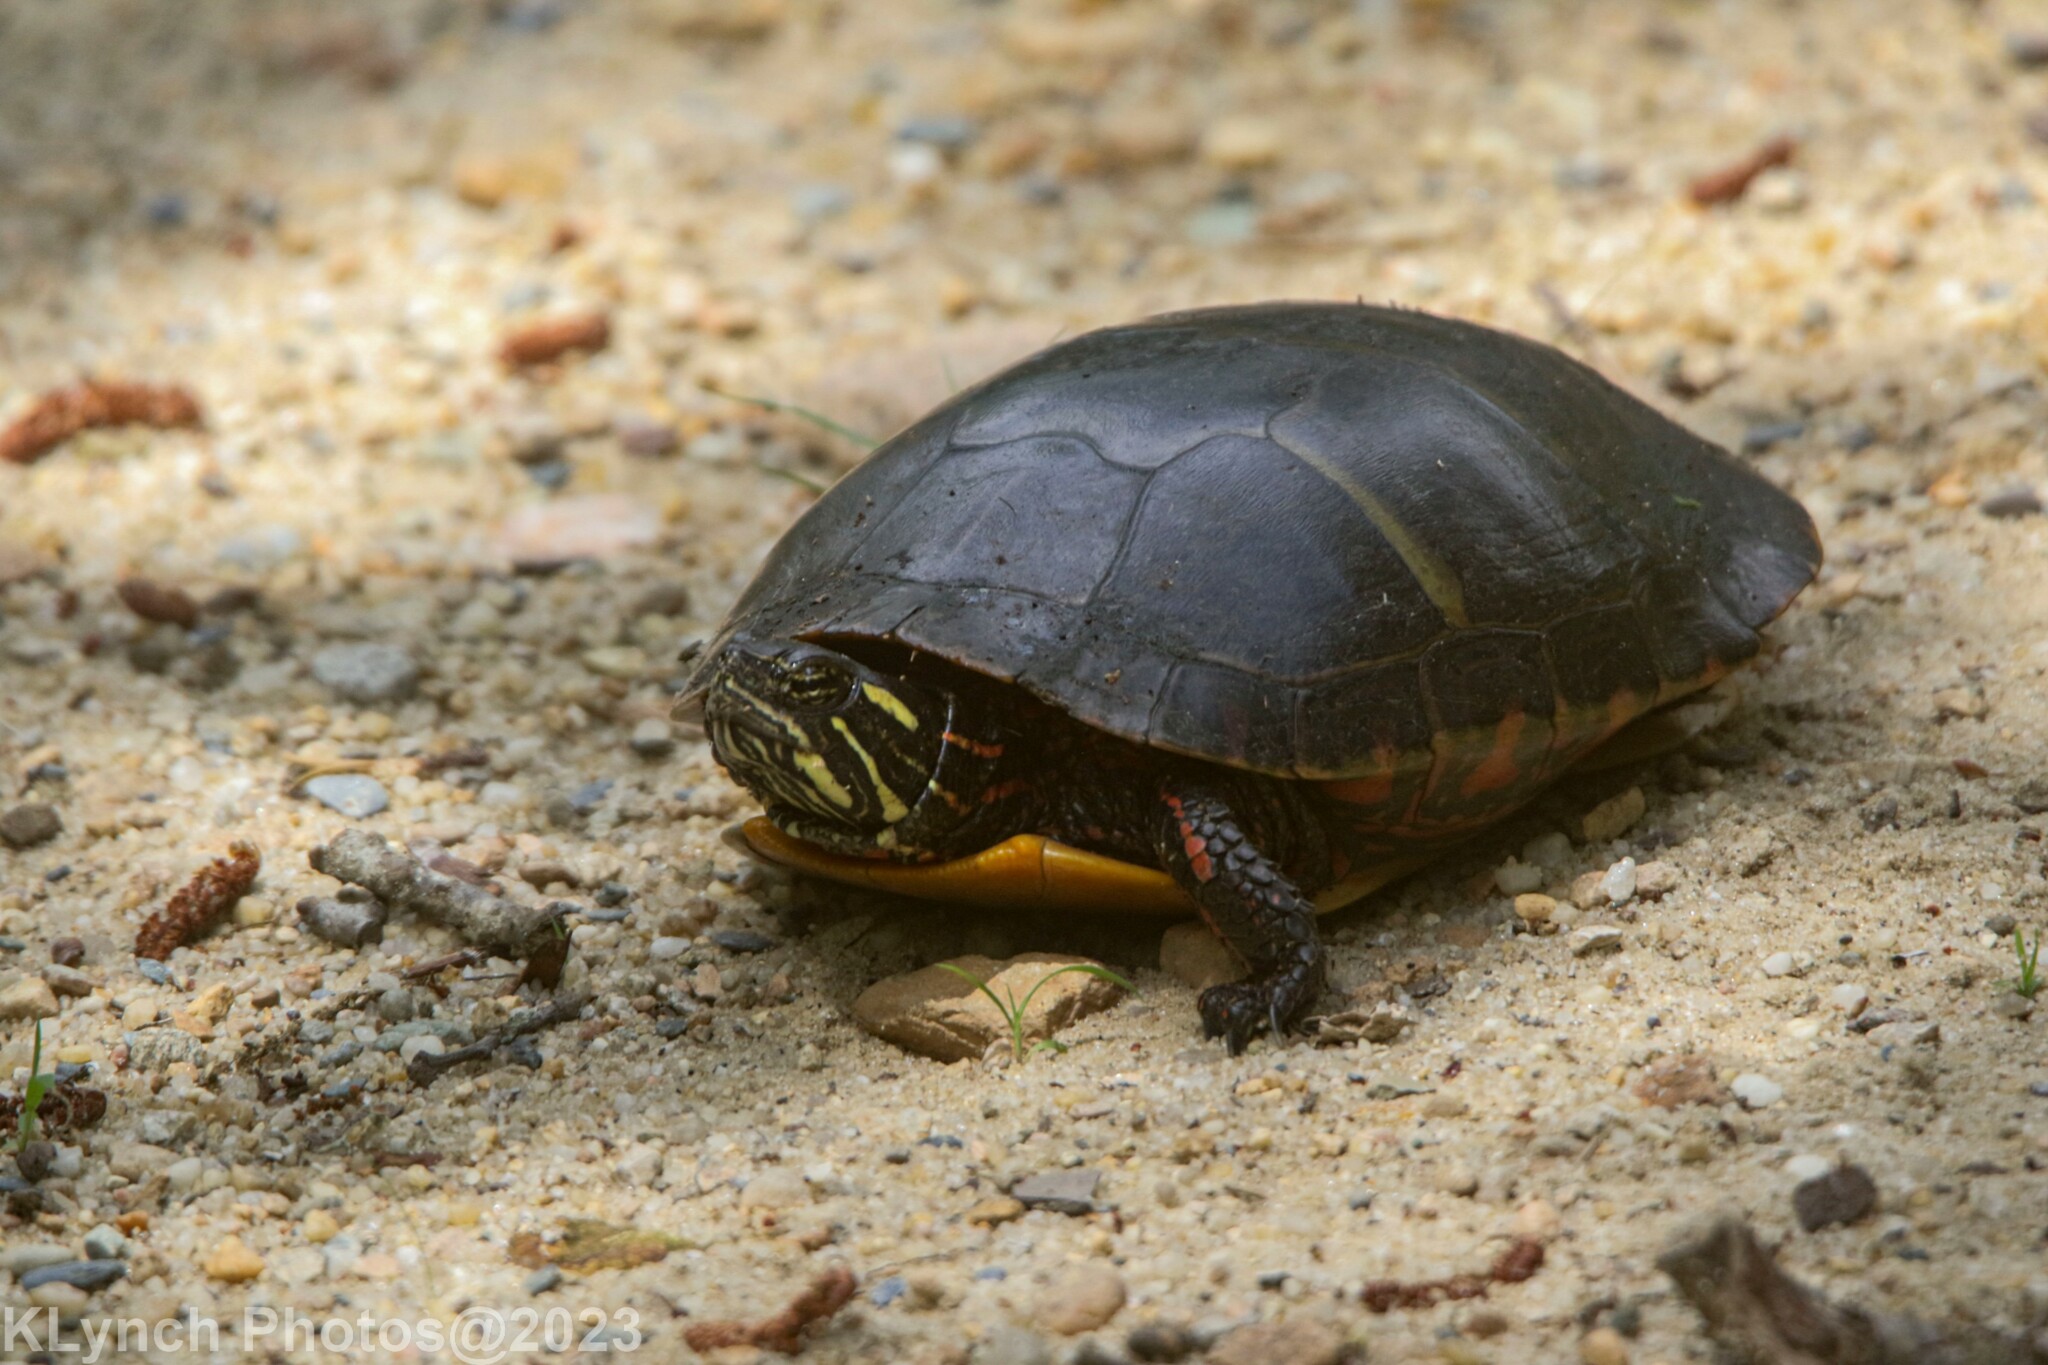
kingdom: Animalia
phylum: Chordata
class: Testudines
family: Emydidae
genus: Chrysemys
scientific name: Chrysemys picta
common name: Painted turtle
